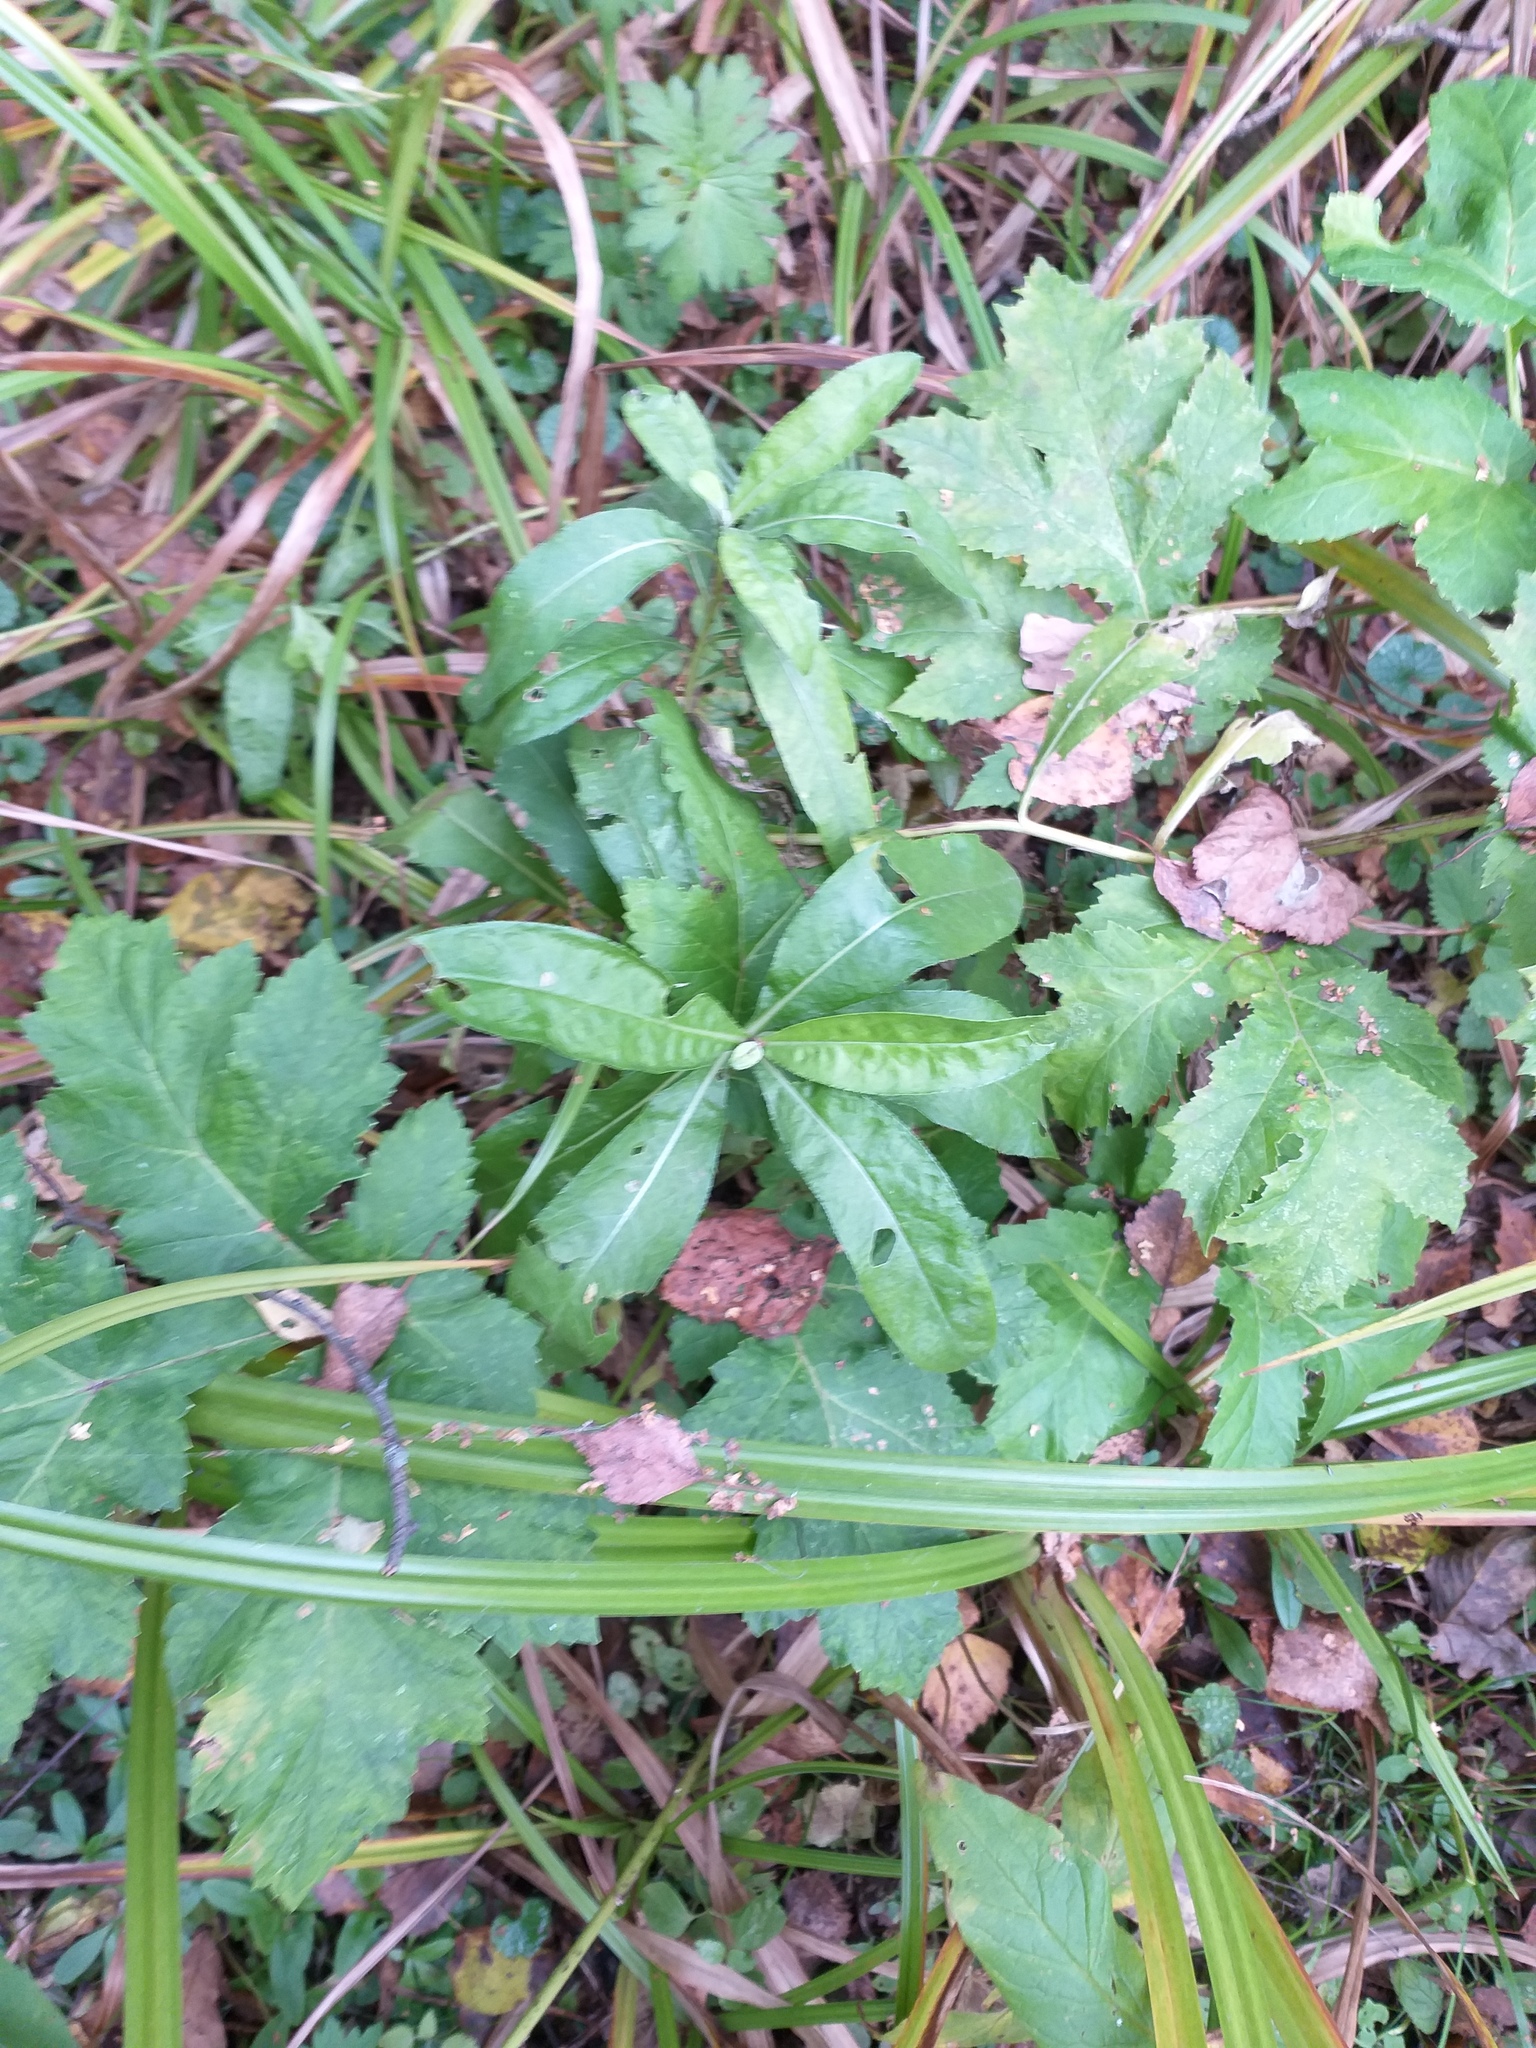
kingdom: Plantae
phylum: Tracheophyta
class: Magnoliopsida
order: Asterales
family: Asteraceae
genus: Cirsium
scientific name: Cirsium arvense
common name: Creeping thistle
